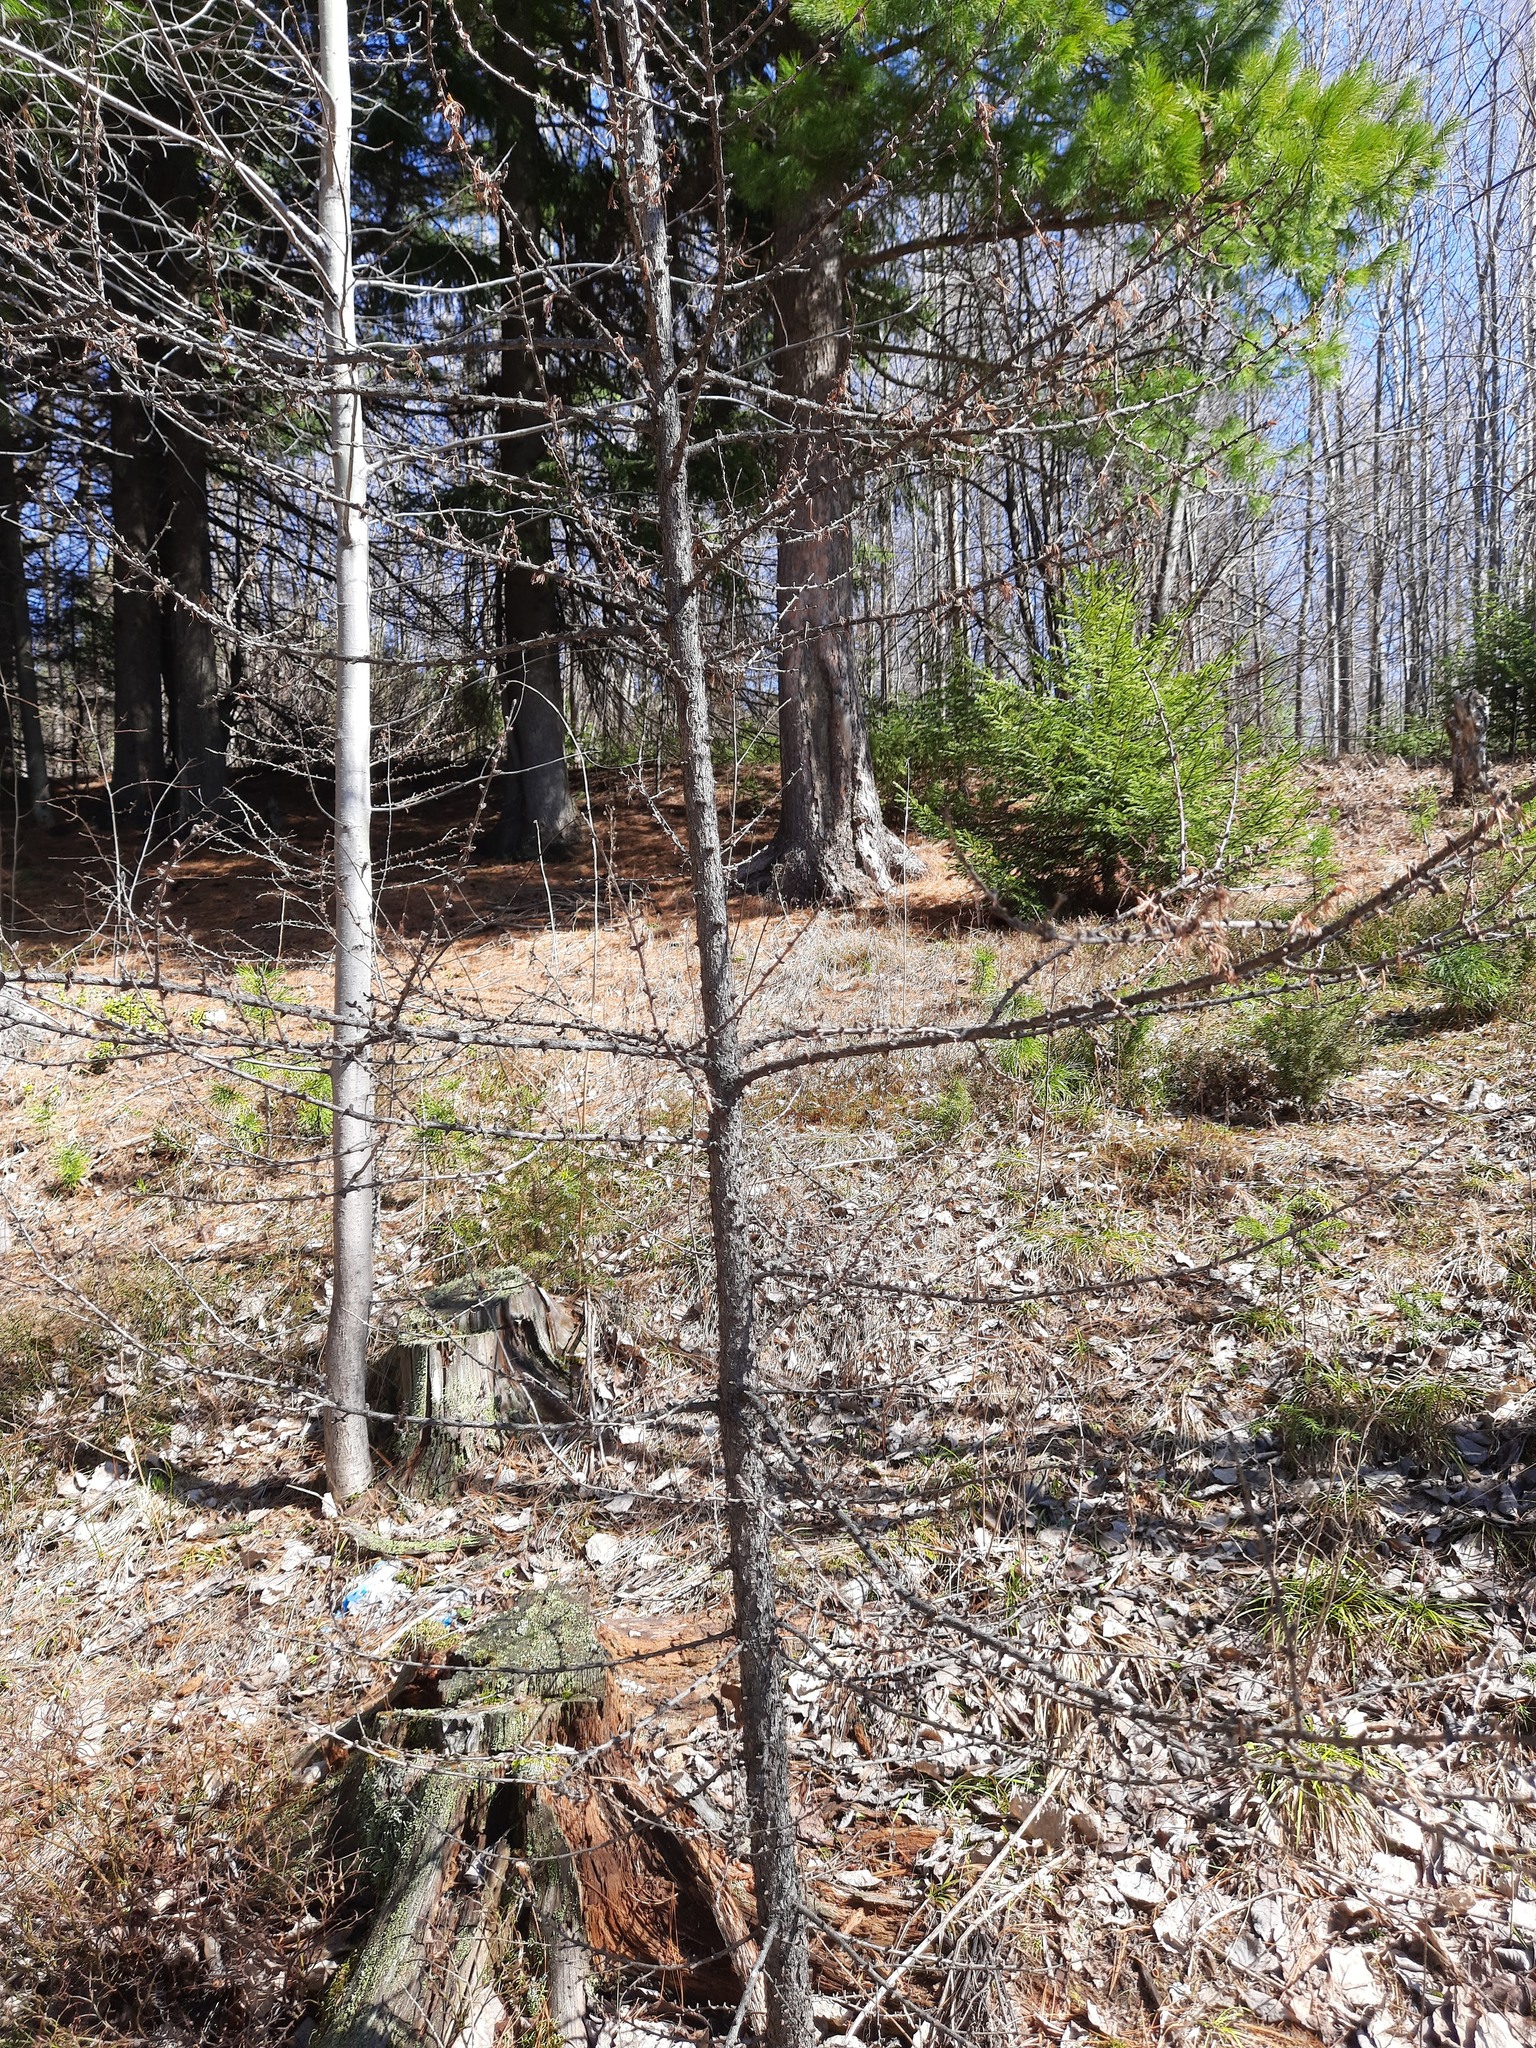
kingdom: Plantae
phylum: Tracheophyta
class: Pinopsida
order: Pinales
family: Pinaceae
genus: Larix
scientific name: Larix sibirica
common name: Siberian larch
